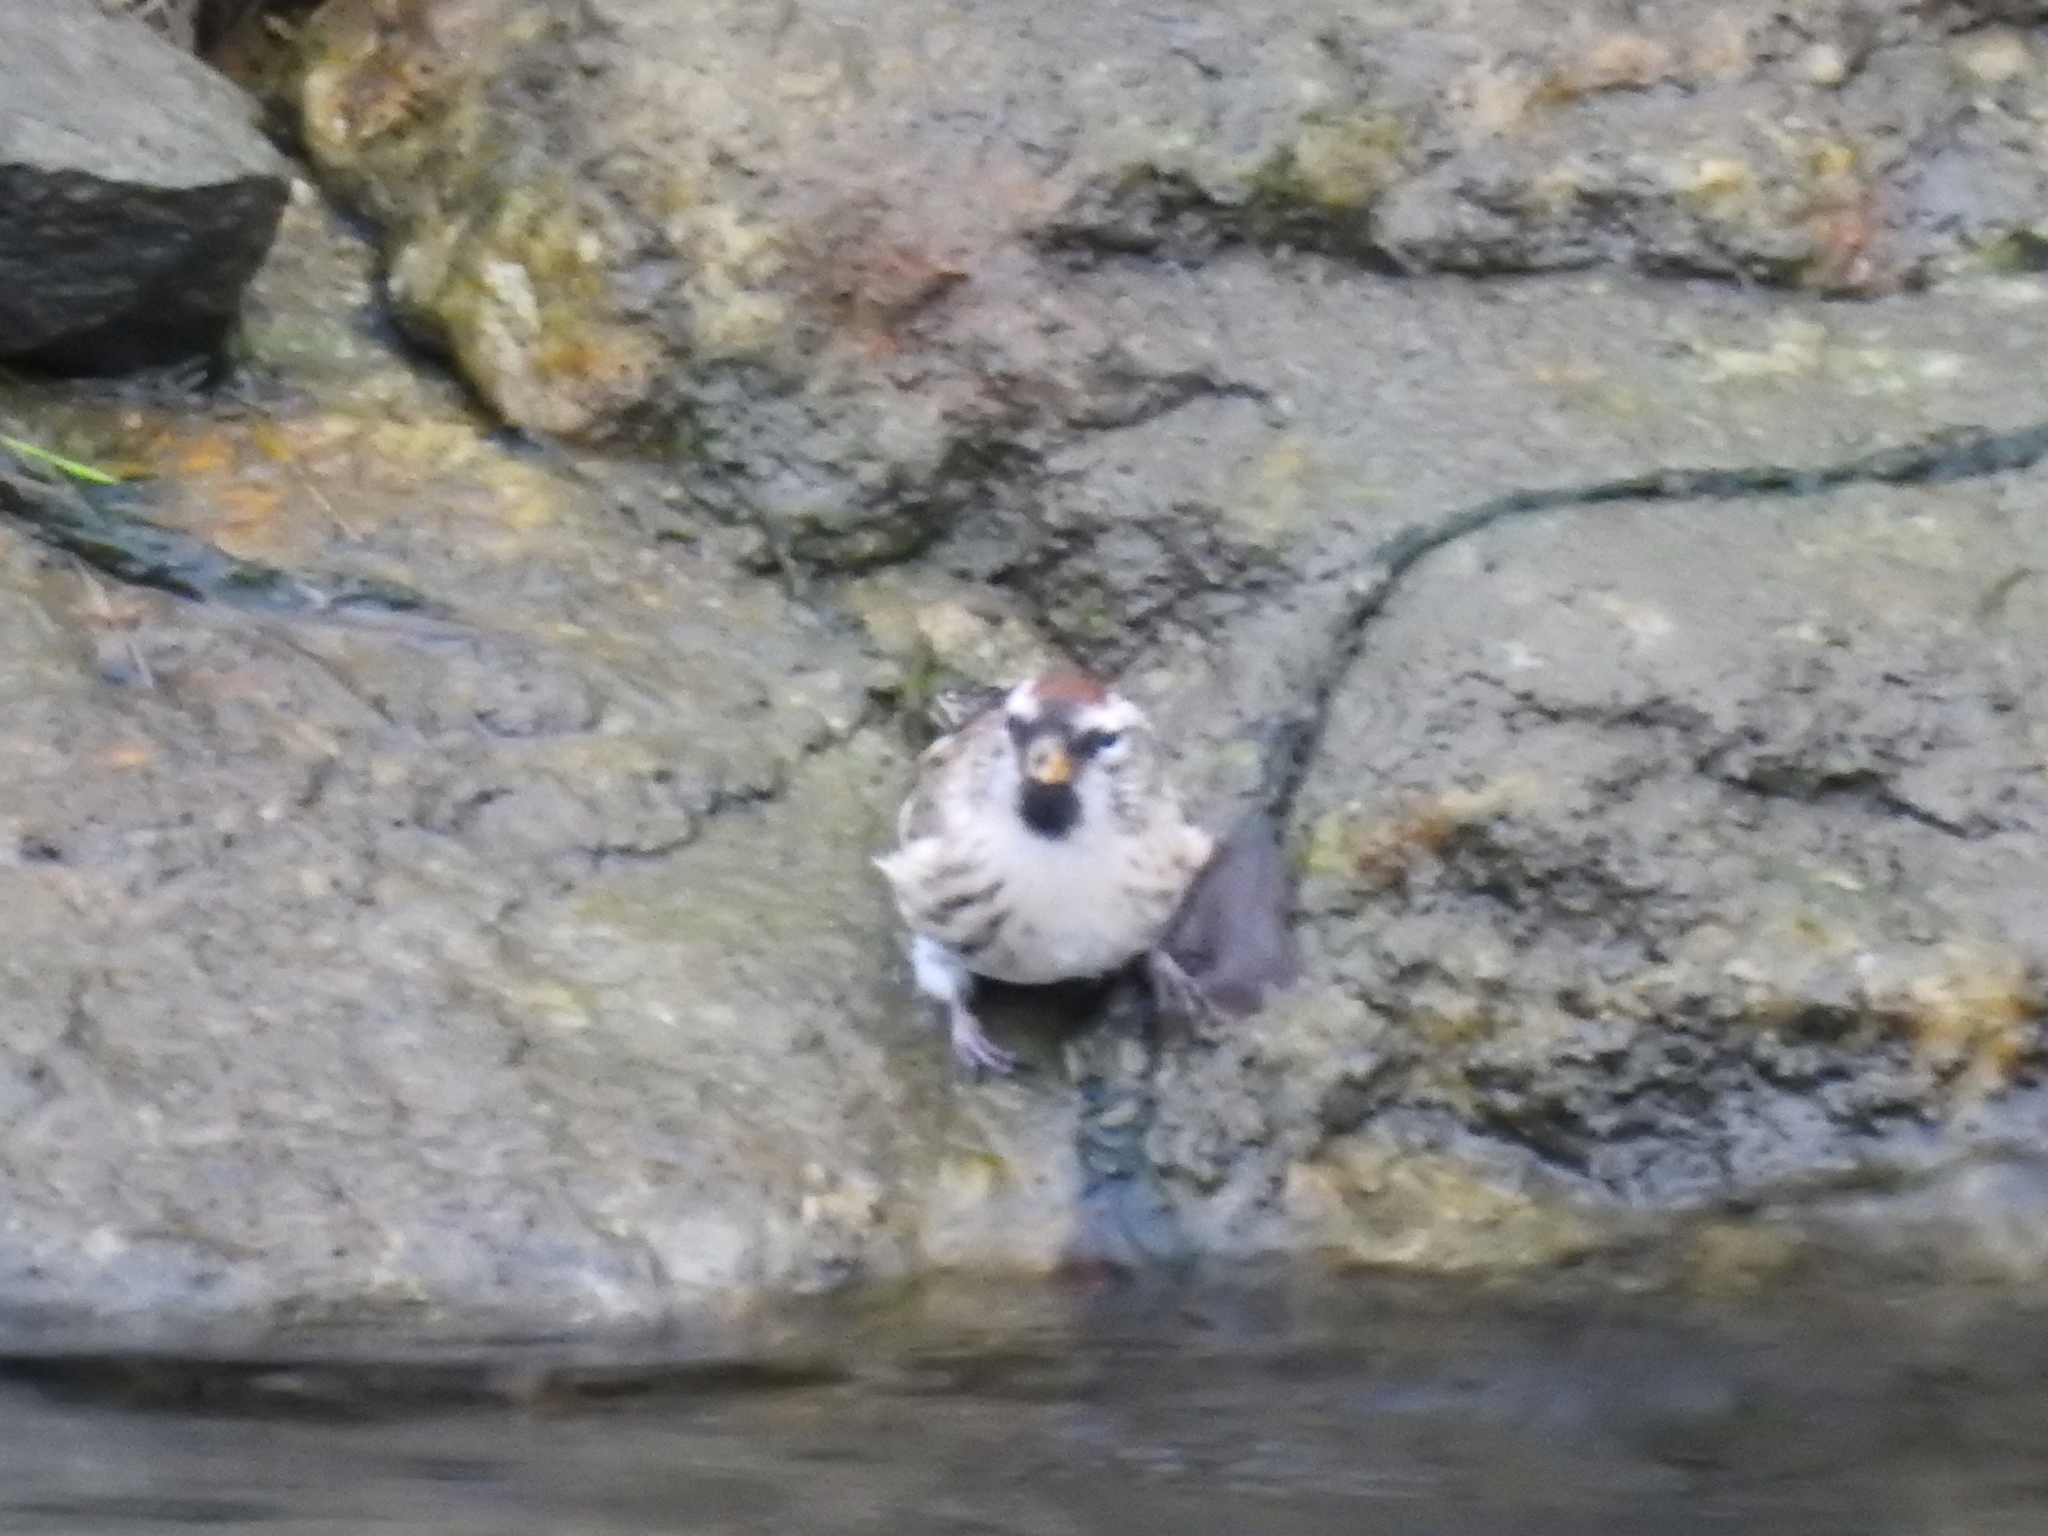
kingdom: Animalia
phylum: Chordata
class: Aves
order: Passeriformes
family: Fringillidae
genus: Acanthis
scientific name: Acanthis flammea
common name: Common redpoll
